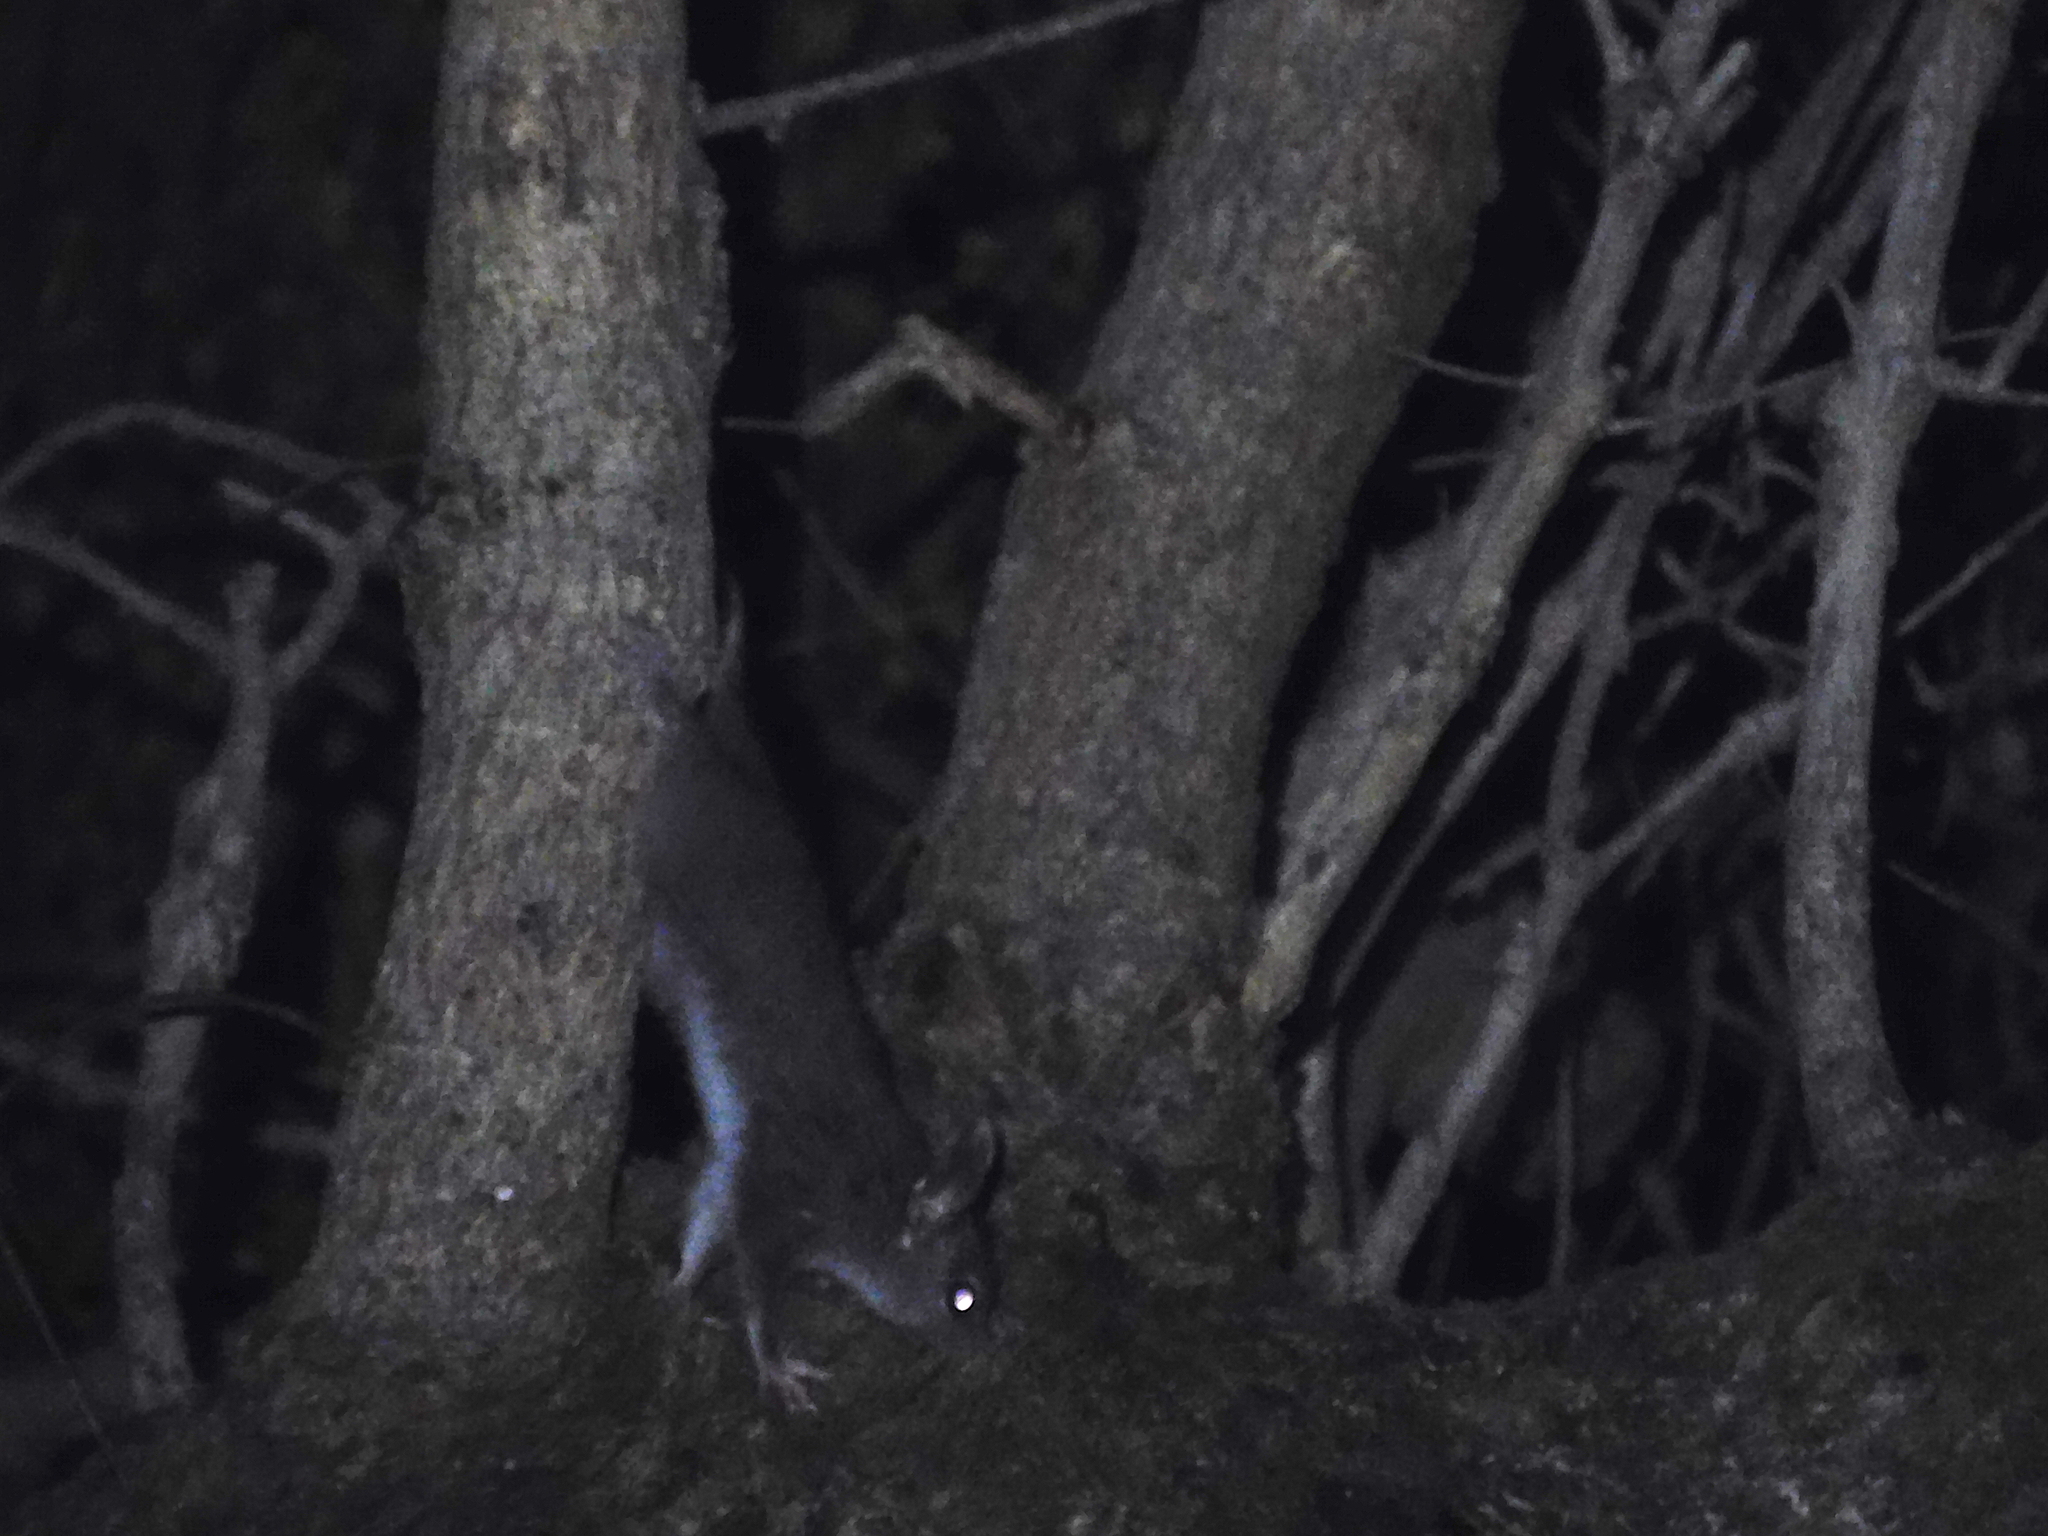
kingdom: Animalia
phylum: Chordata
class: Mammalia
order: Dasyuromorphia
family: Dasyuridae
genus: Phascogale
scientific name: Phascogale tapoatafa
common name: Brush-tailed phascogale
